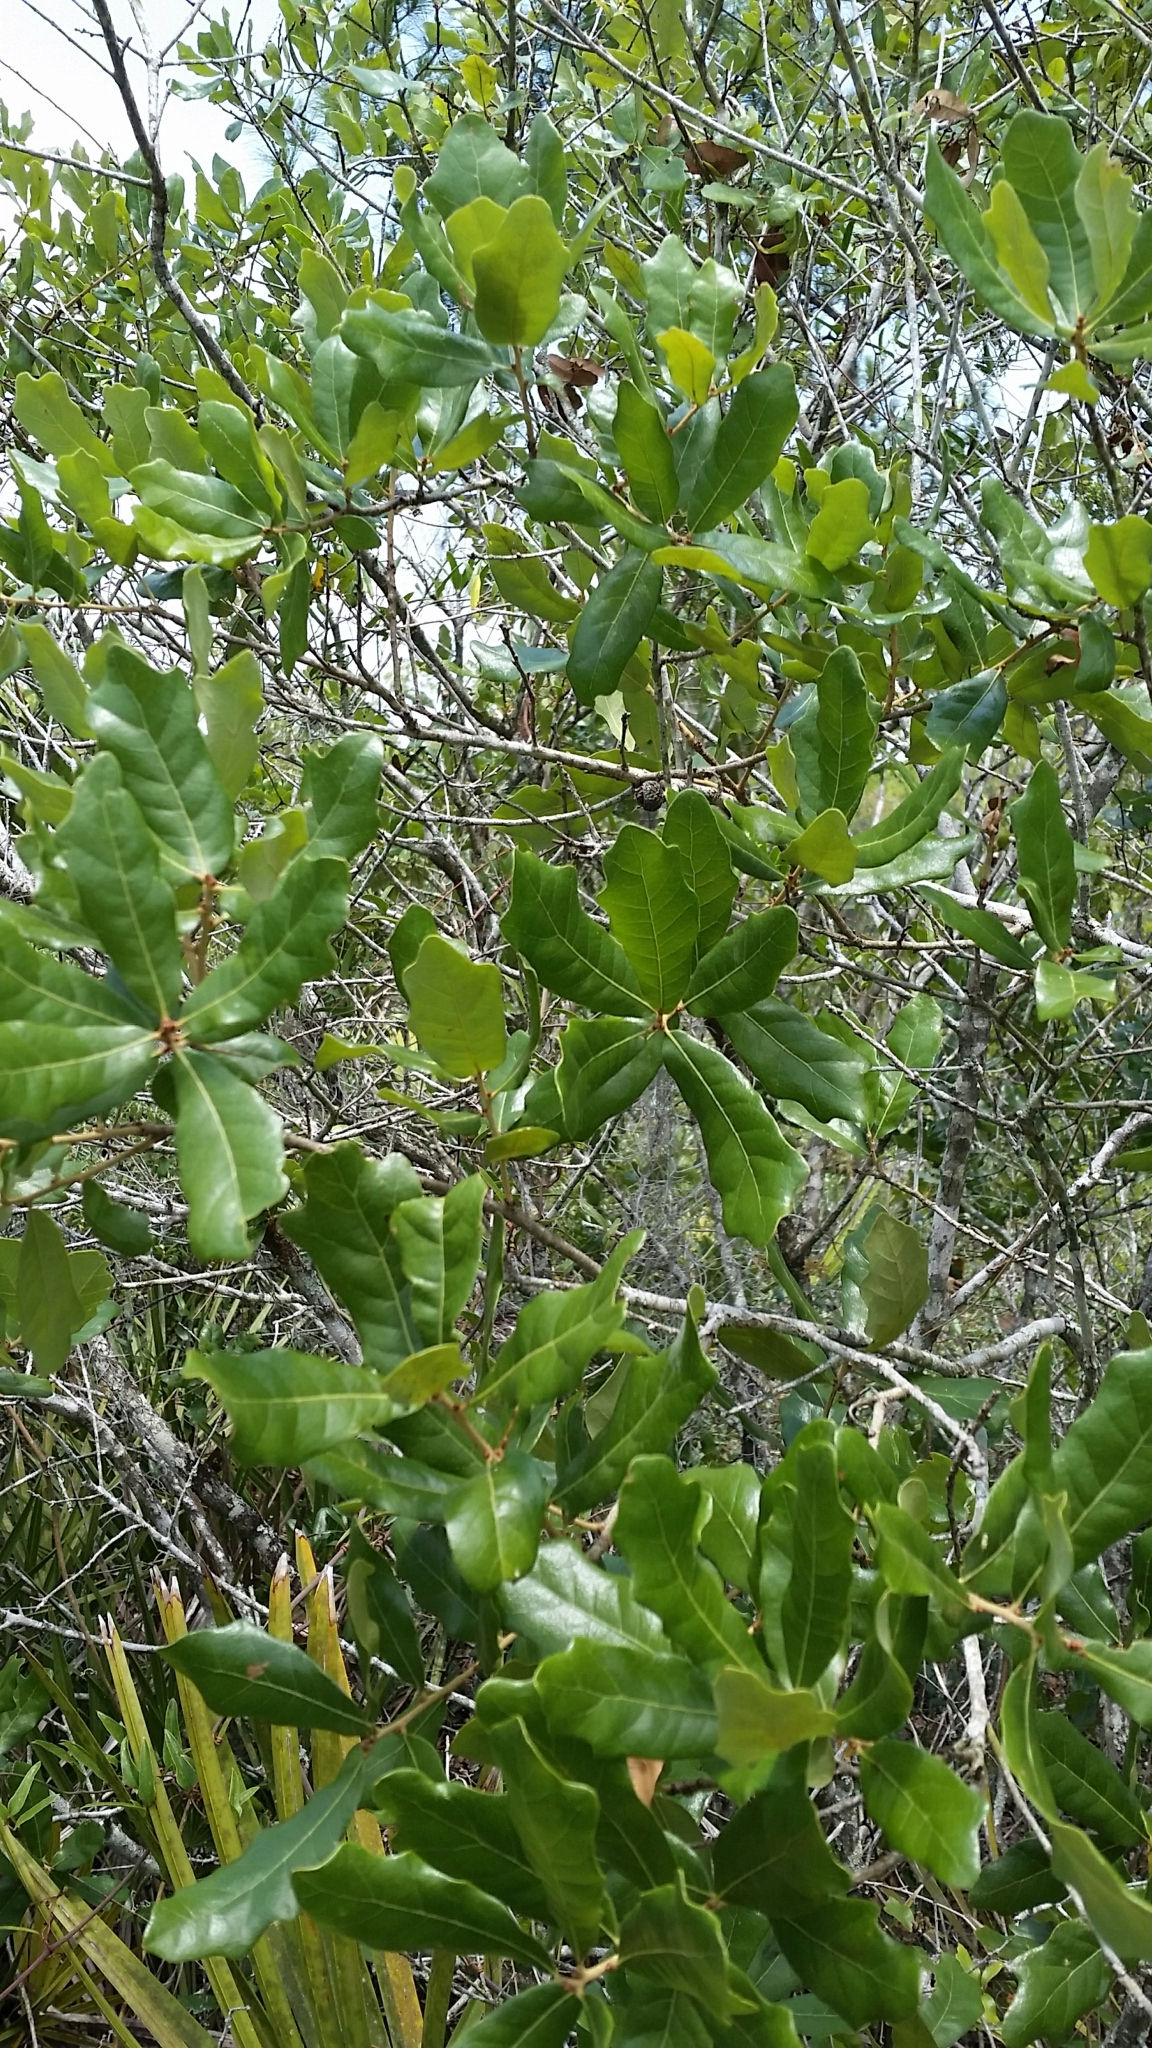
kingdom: Plantae
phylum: Tracheophyta
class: Magnoliopsida
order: Fagales
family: Fagaceae
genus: Quercus
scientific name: Quercus chapmanii
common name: Chapman oak
